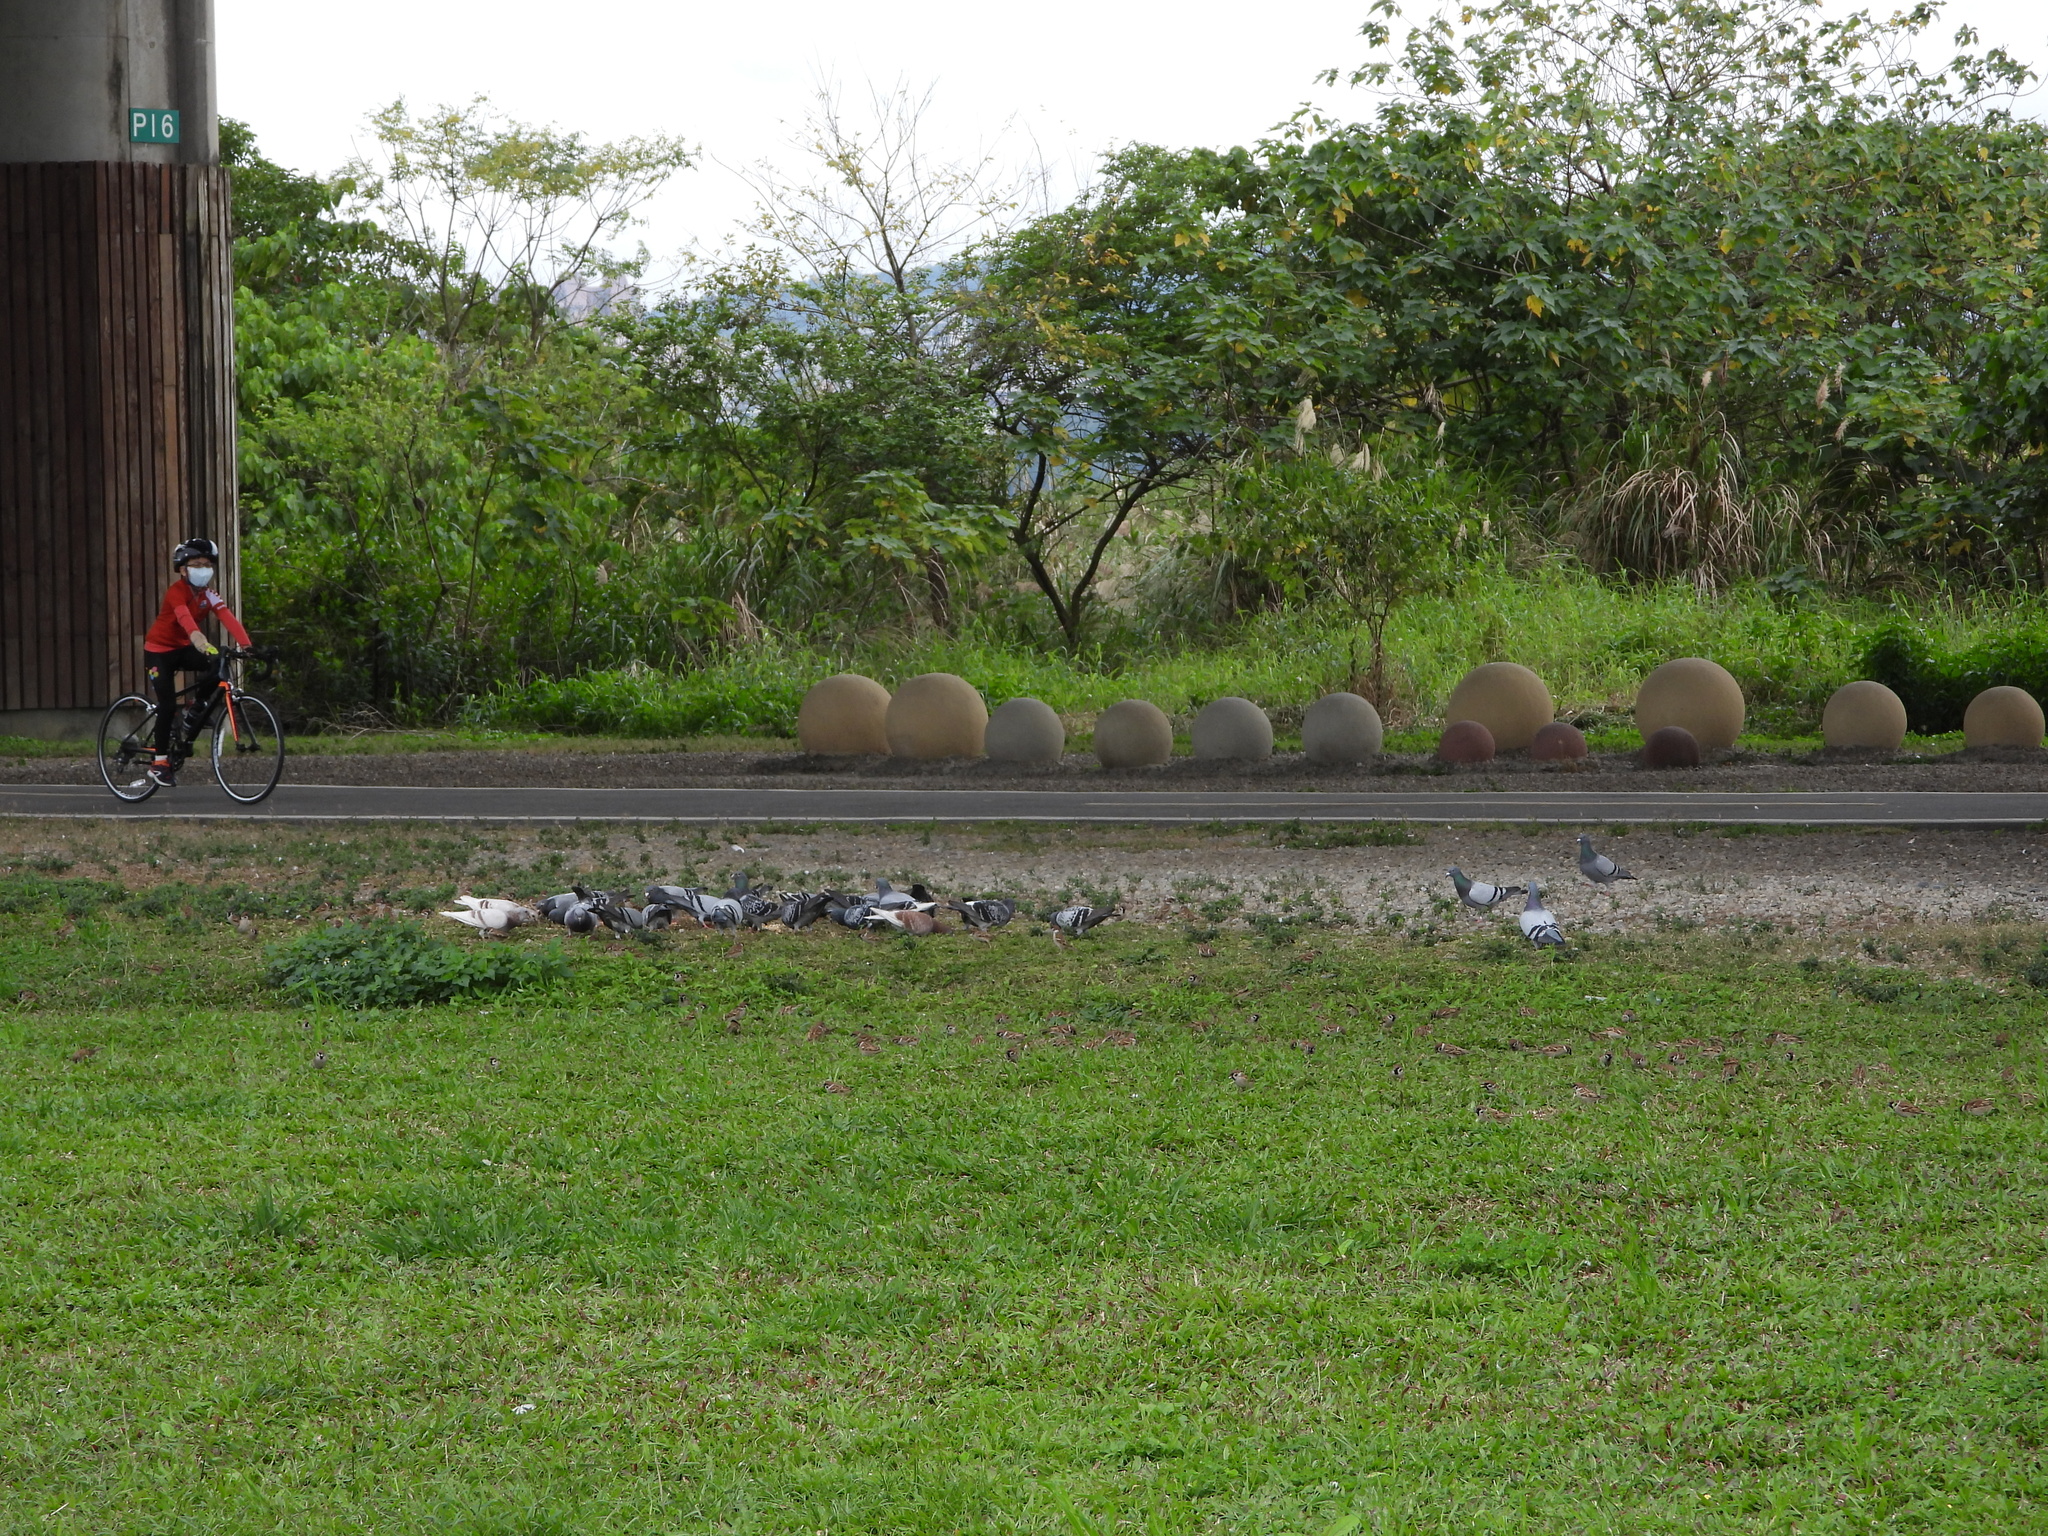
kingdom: Animalia
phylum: Chordata
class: Aves
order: Columbiformes
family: Columbidae
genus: Columba
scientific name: Columba livia
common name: Rock pigeon
